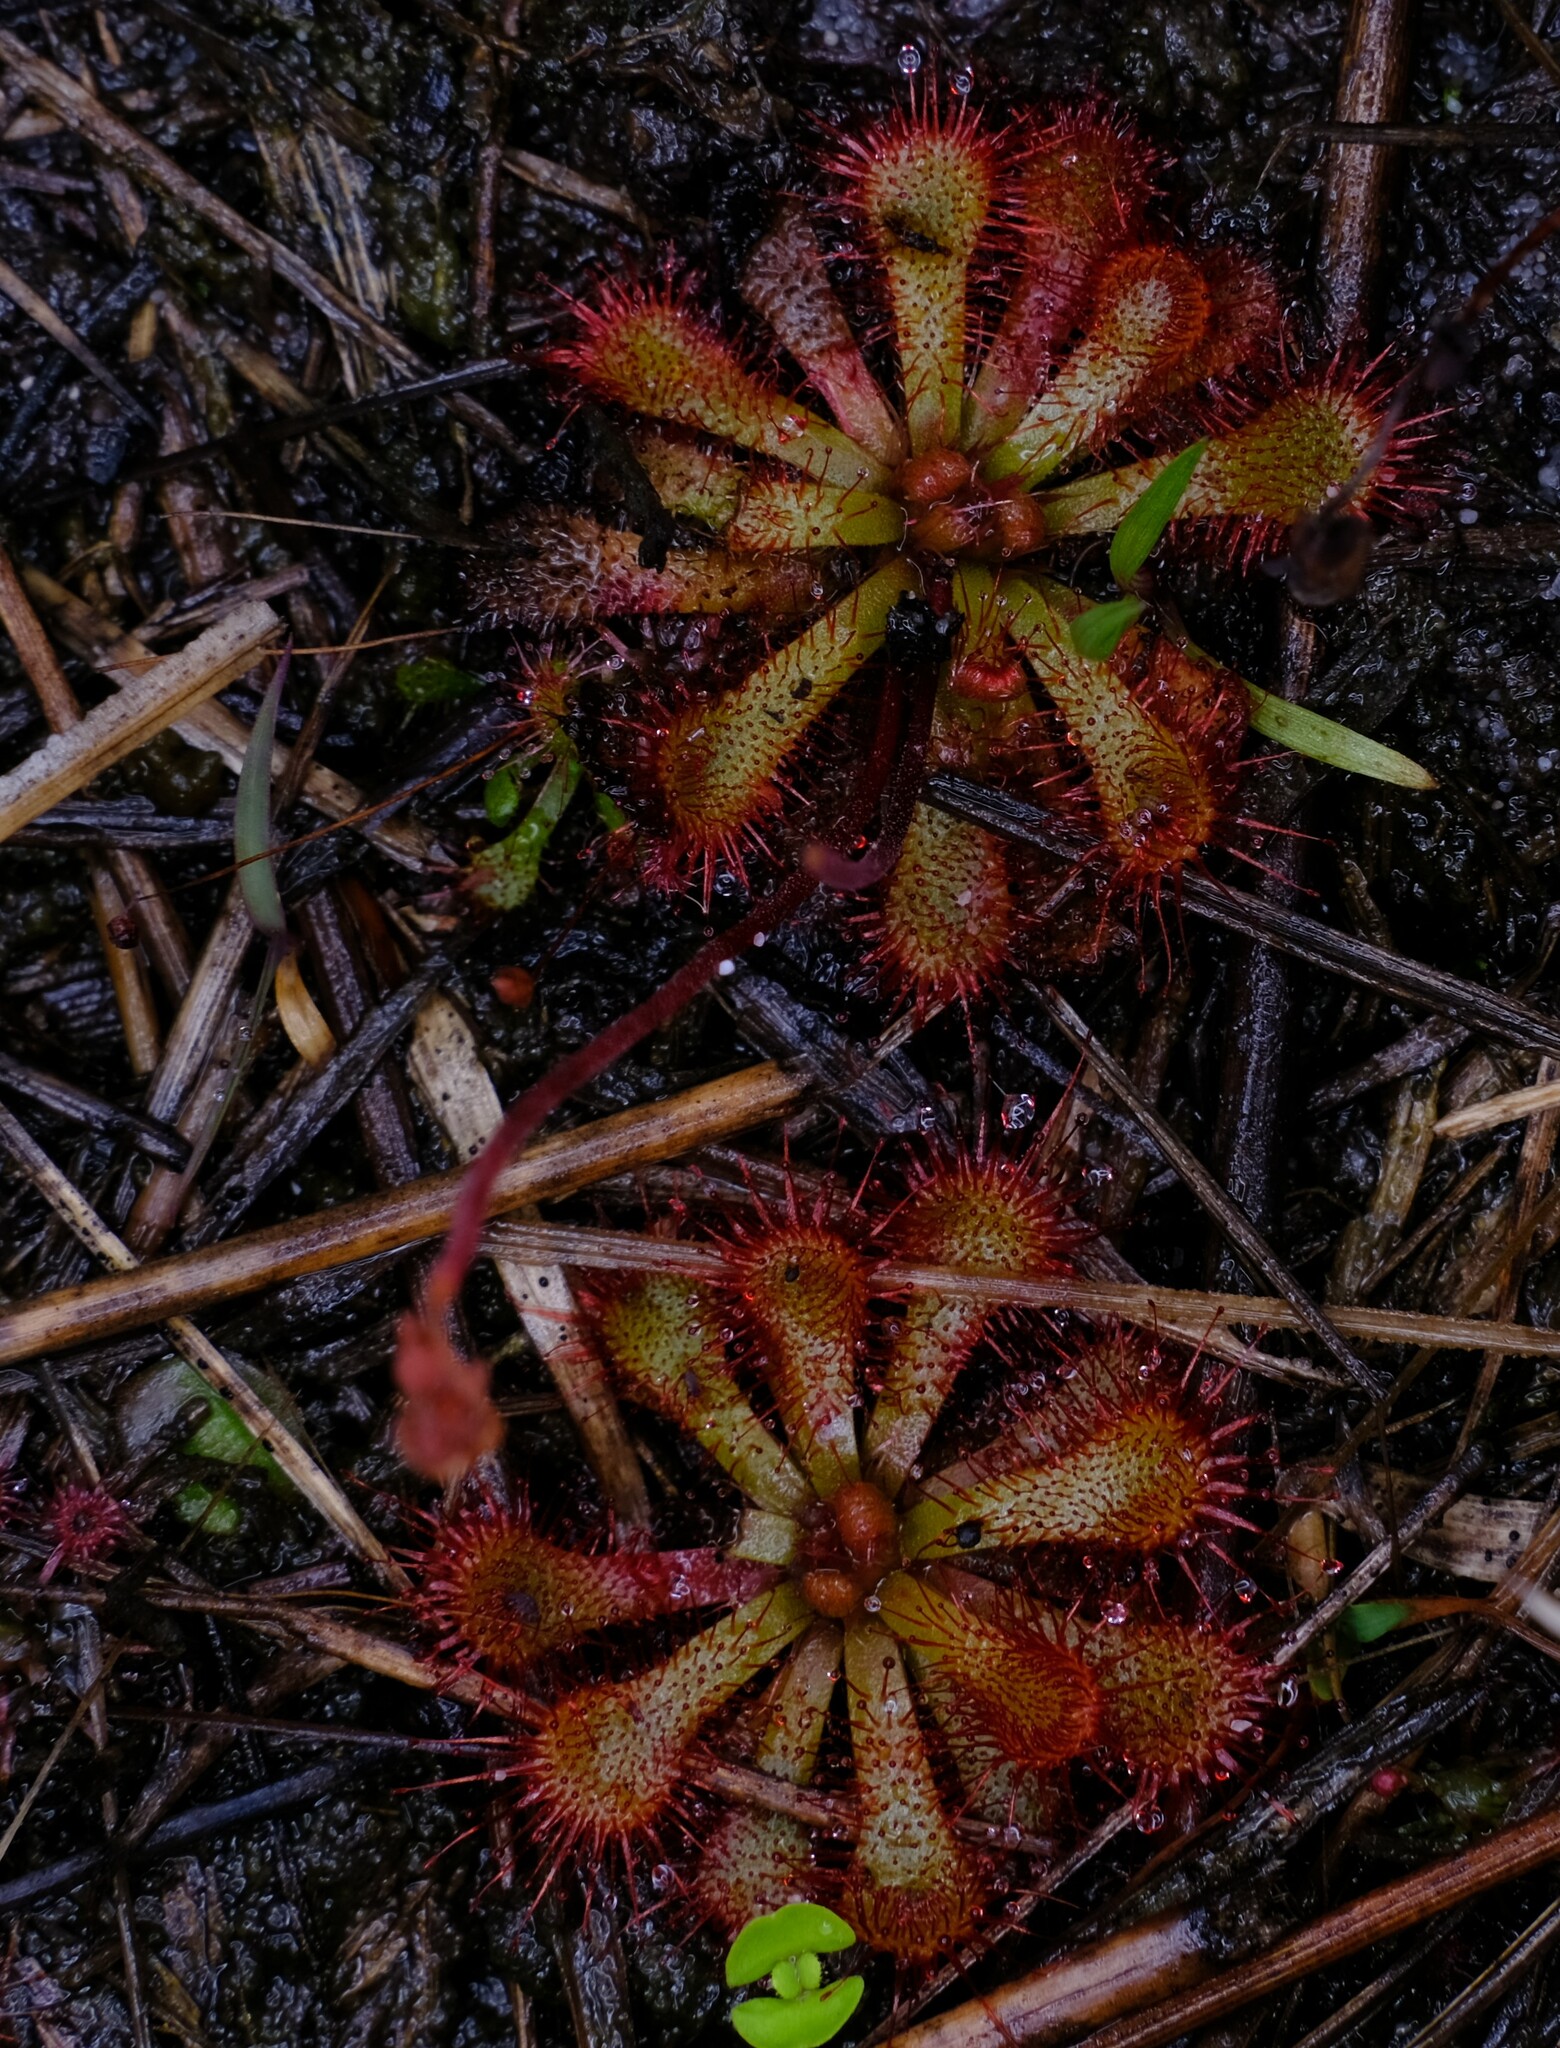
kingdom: Plantae
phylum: Tracheophyta
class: Magnoliopsida
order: Caryophyllales
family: Droseraceae
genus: Drosera
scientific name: Drosera spatulata
